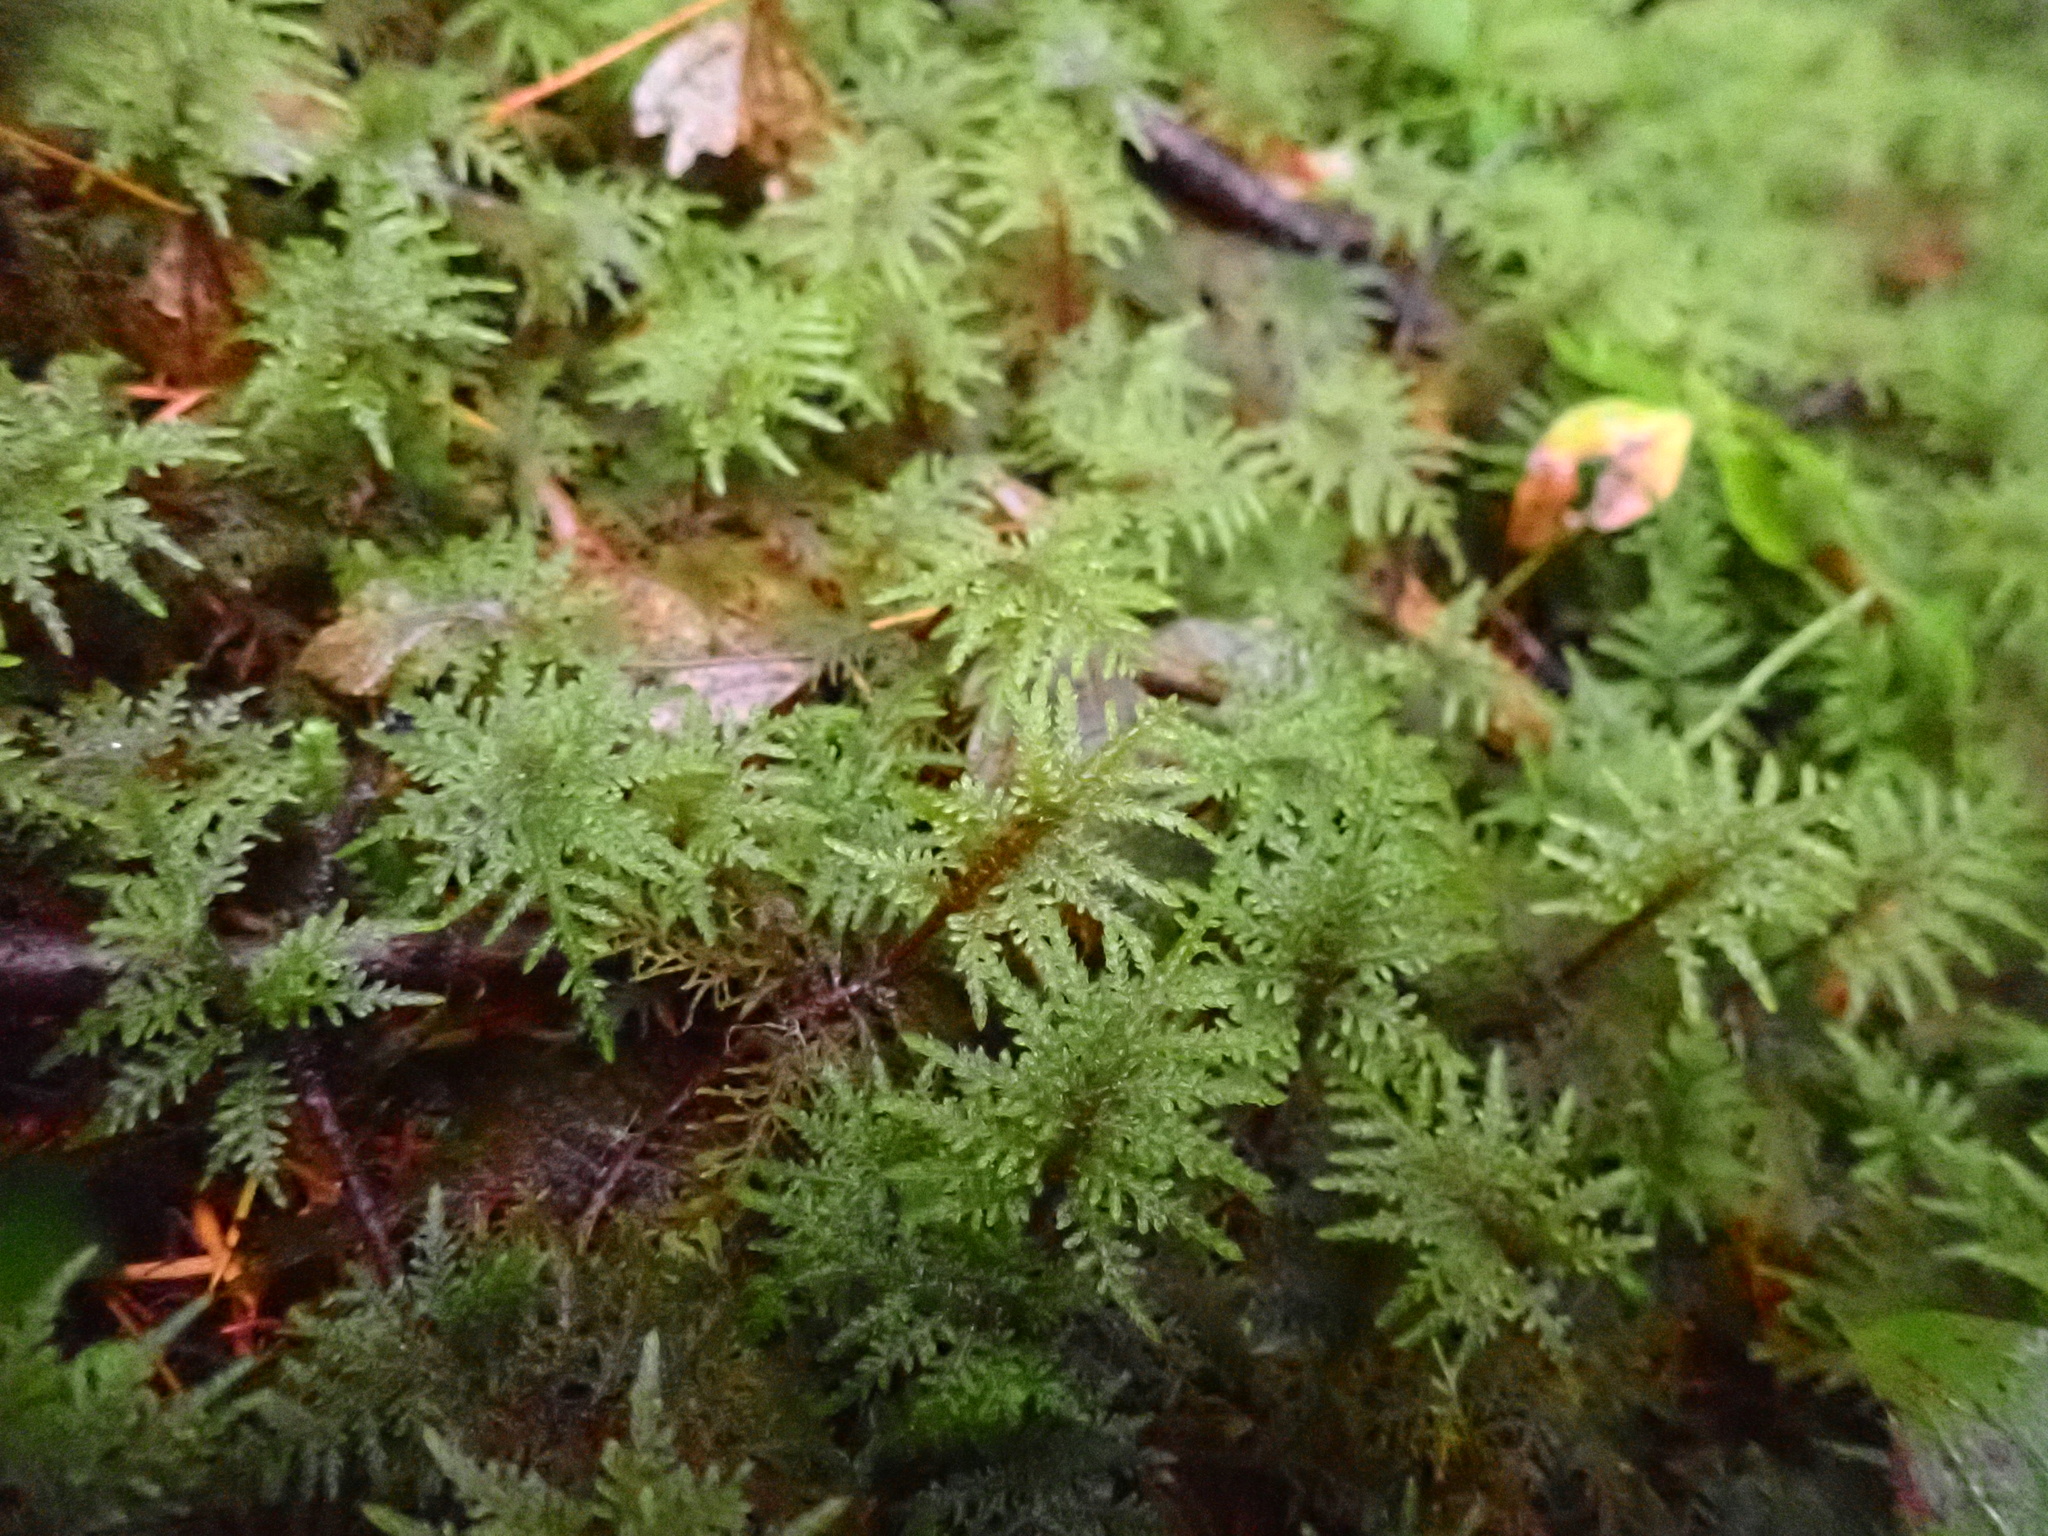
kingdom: Plantae
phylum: Bryophyta
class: Bryopsida
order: Hypnales
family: Hylocomiaceae
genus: Hylocomium
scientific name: Hylocomium splendens
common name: Stairstep moss
